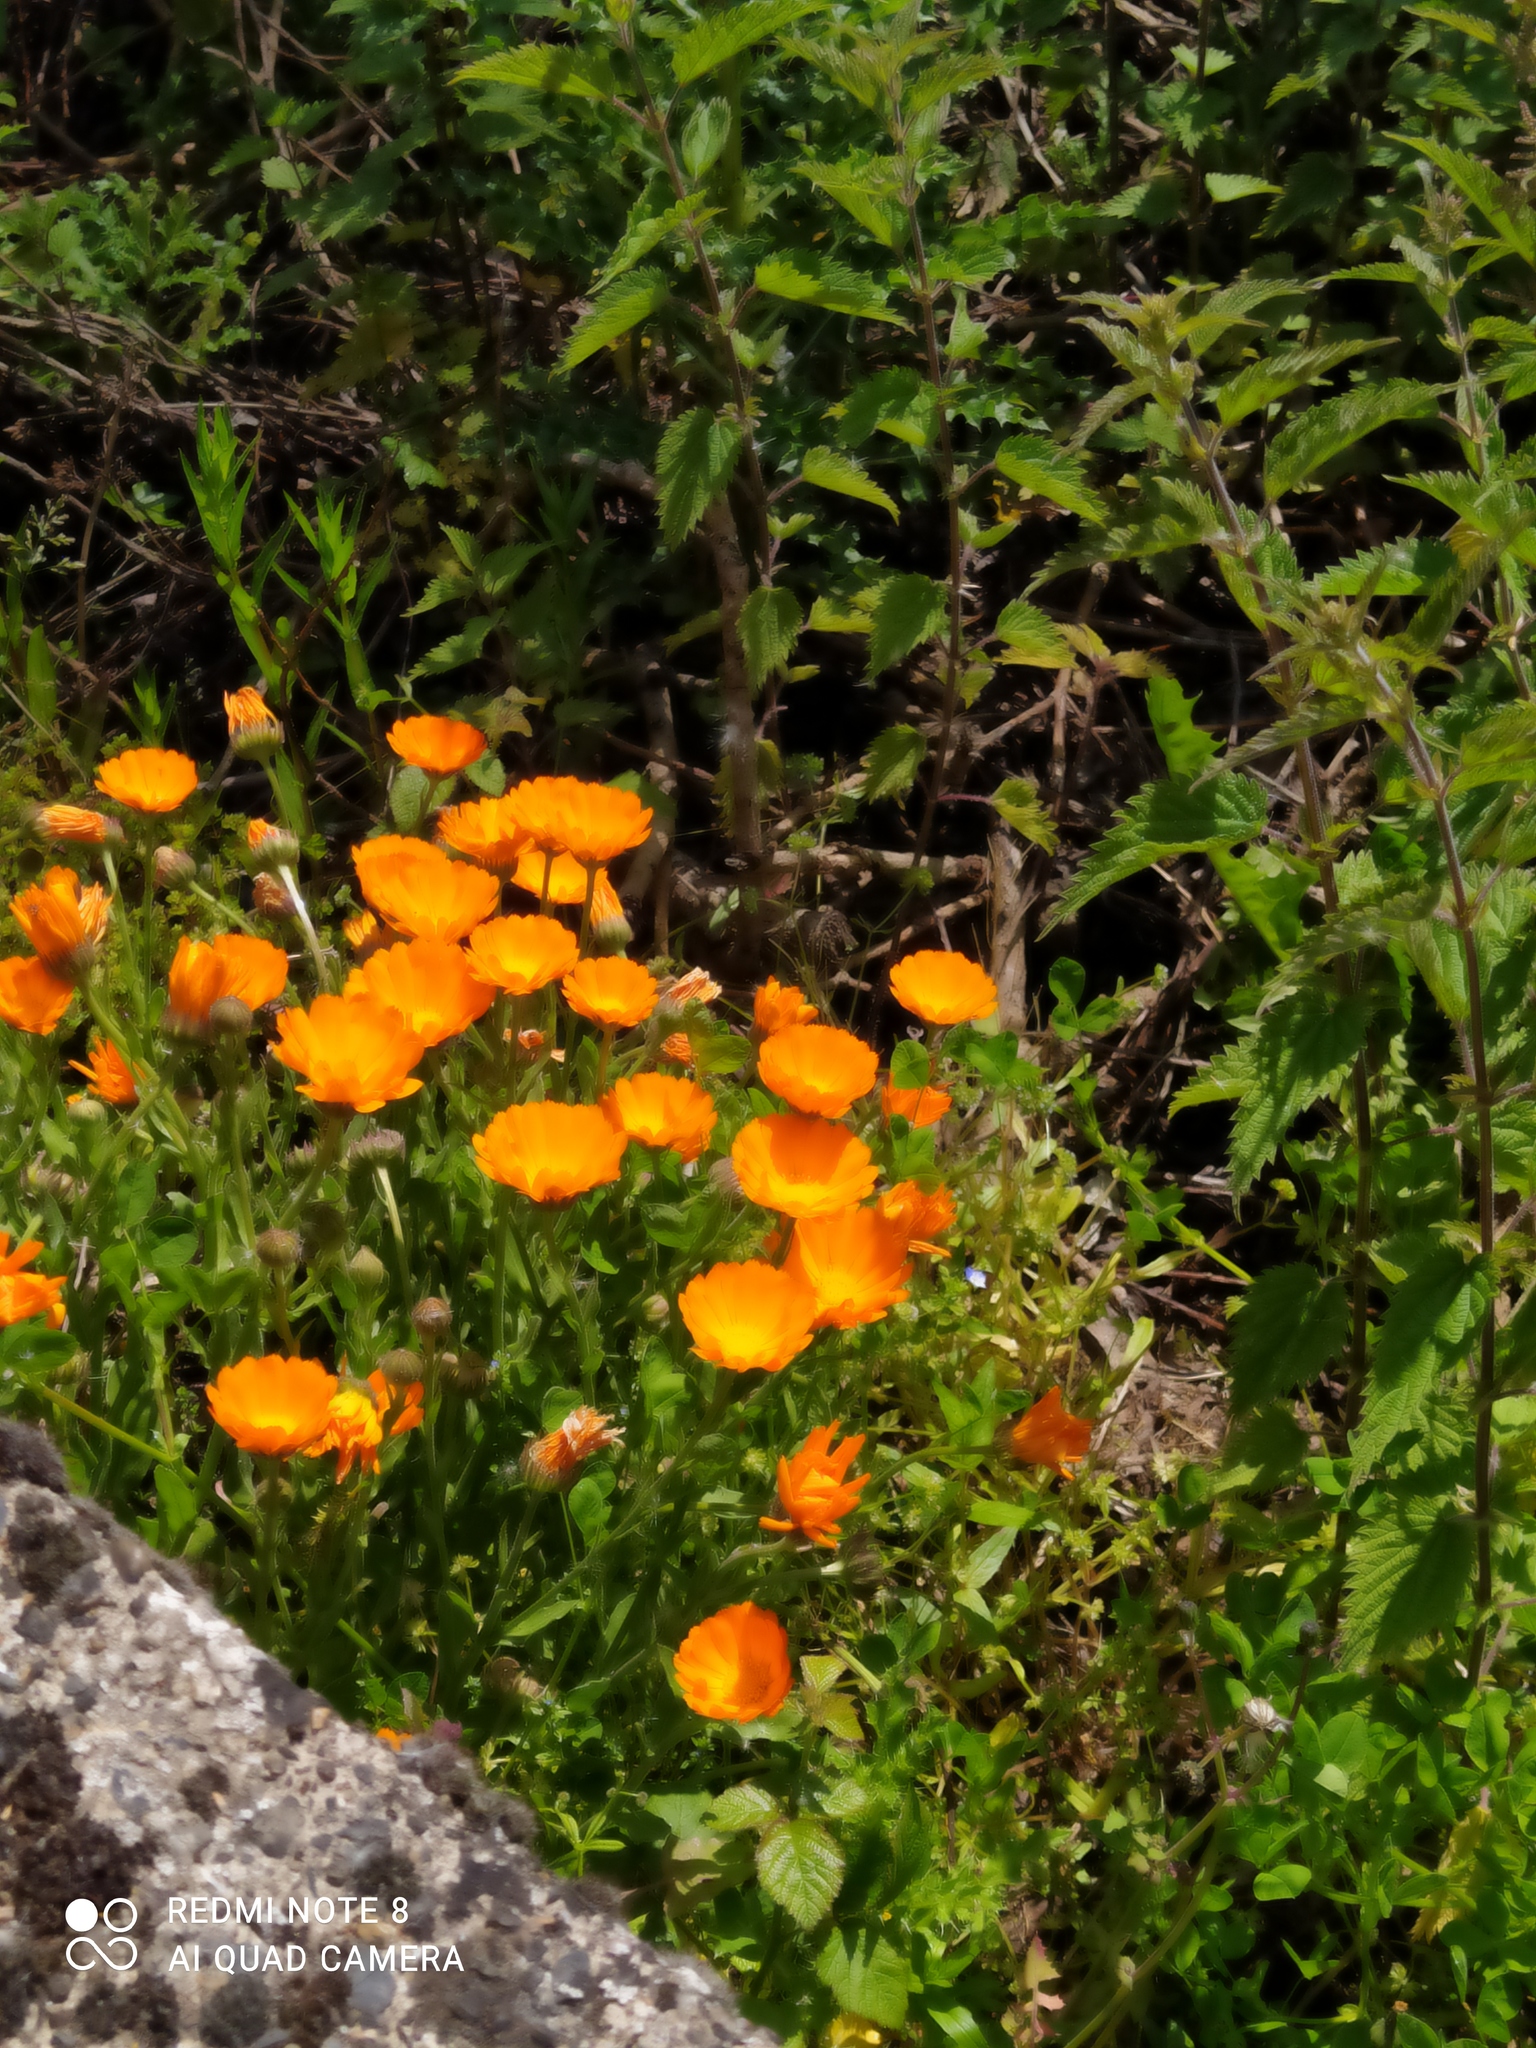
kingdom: Plantae
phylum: Tracheophyta
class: Magnoliopsida
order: Asterales
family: Asteraceae
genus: Calendula
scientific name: Calendula officinalis
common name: Pot marigold
